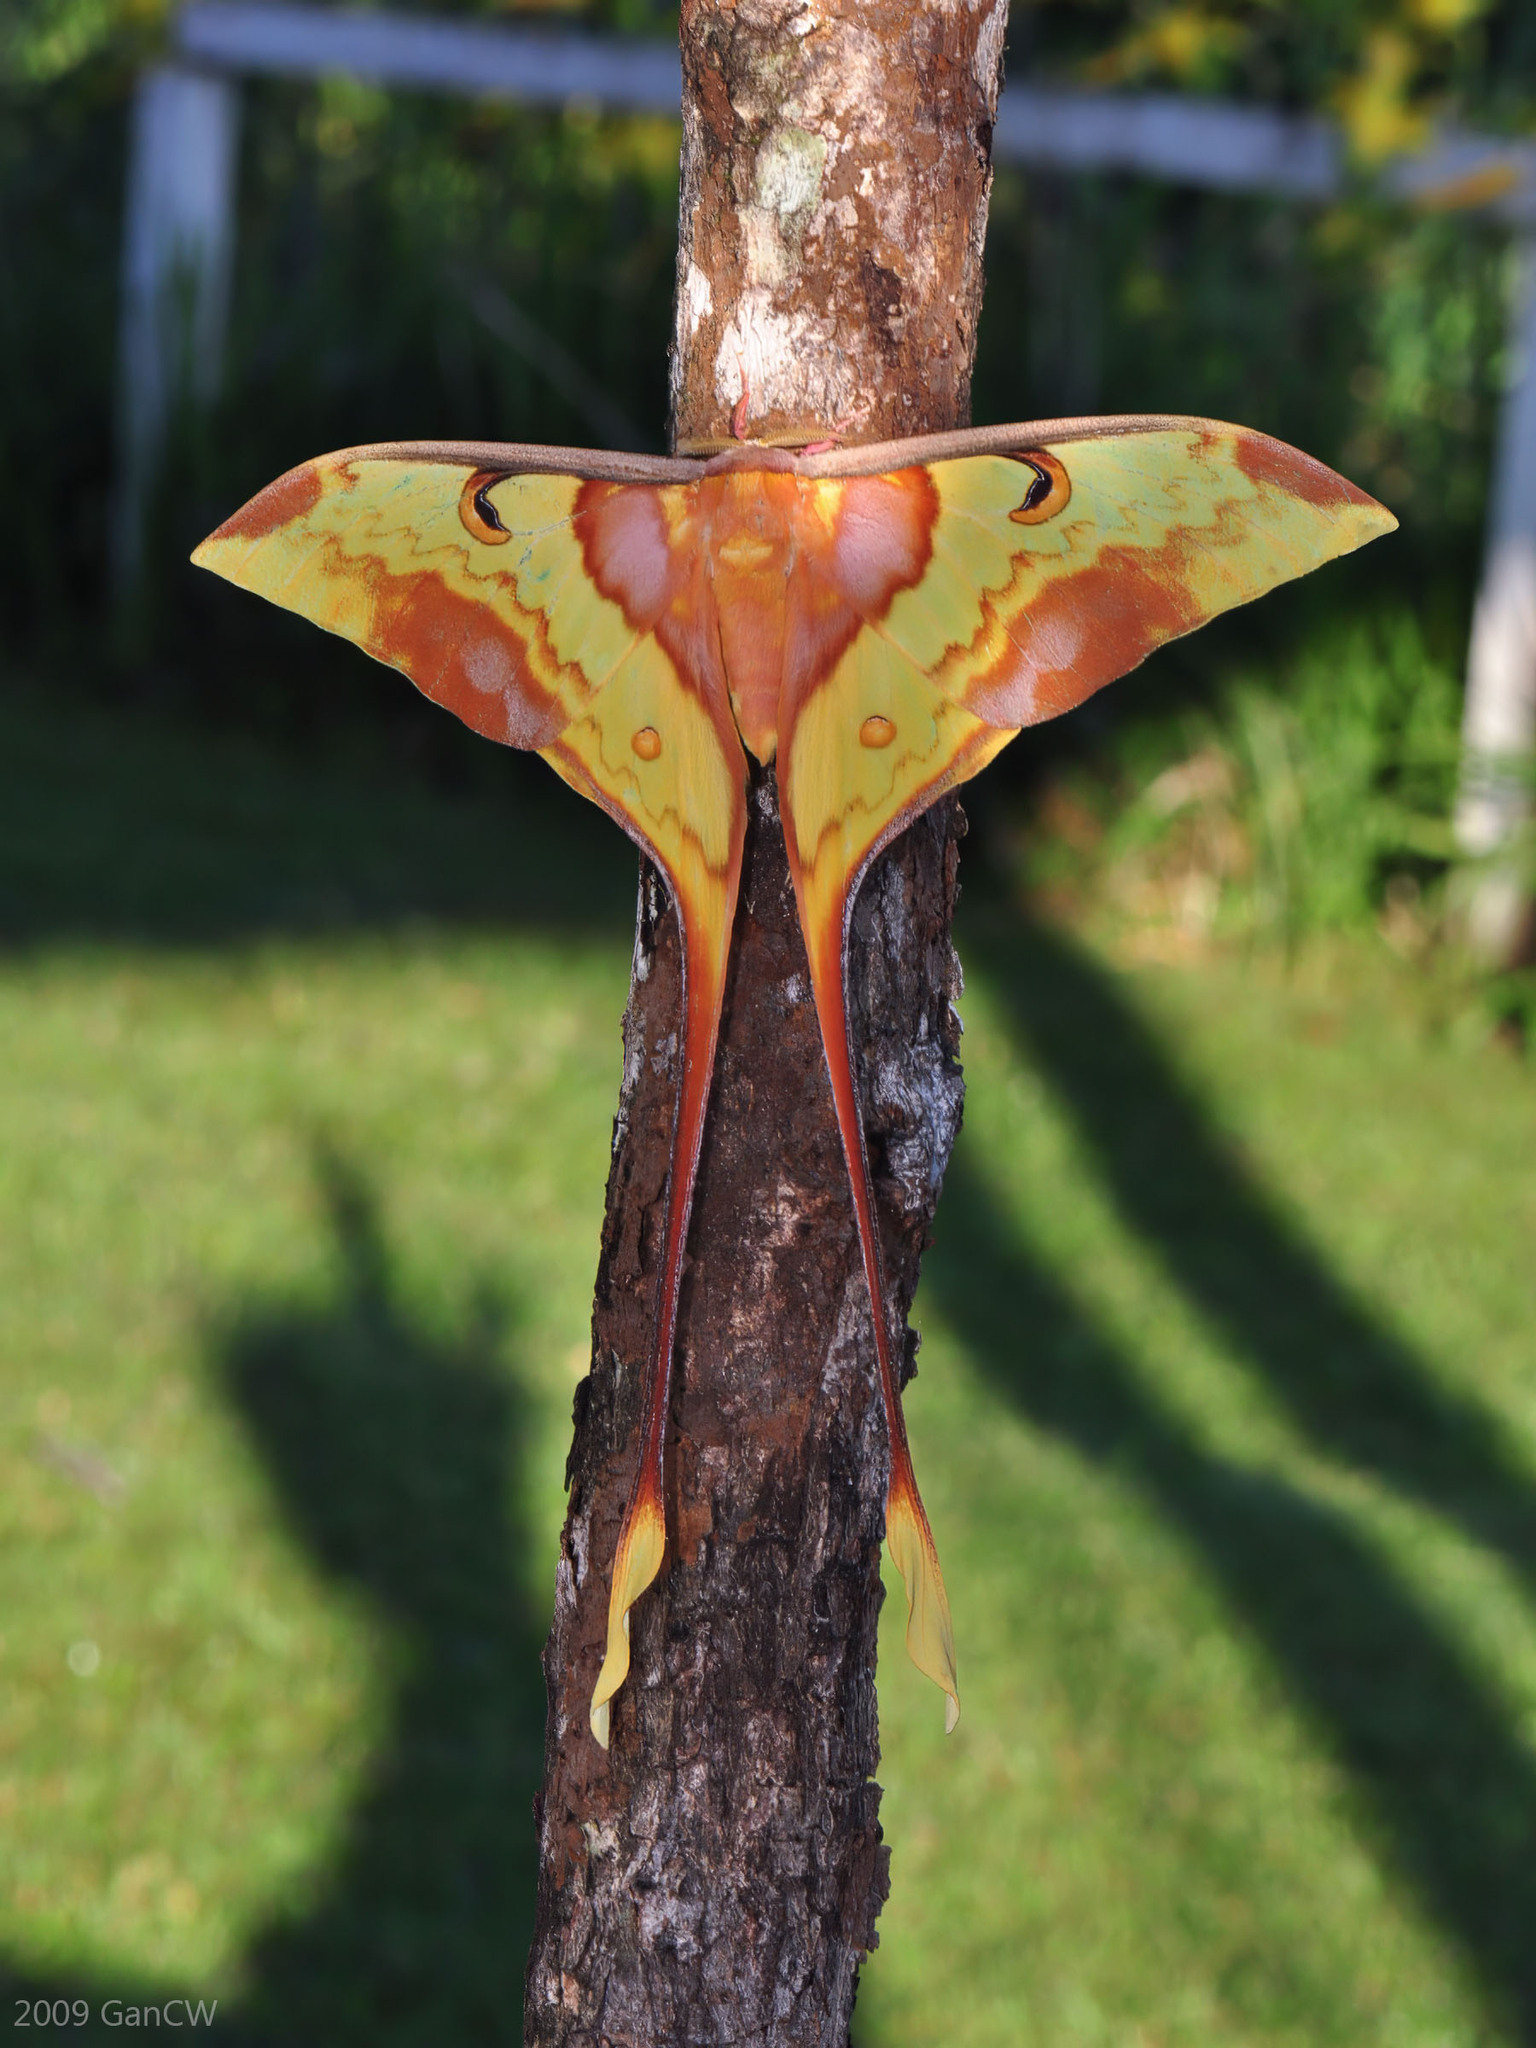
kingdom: Animalia
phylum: Arthropoda
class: Insecta
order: Lepidoptera
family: Saturniidae
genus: Actias
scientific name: Actias maenas
